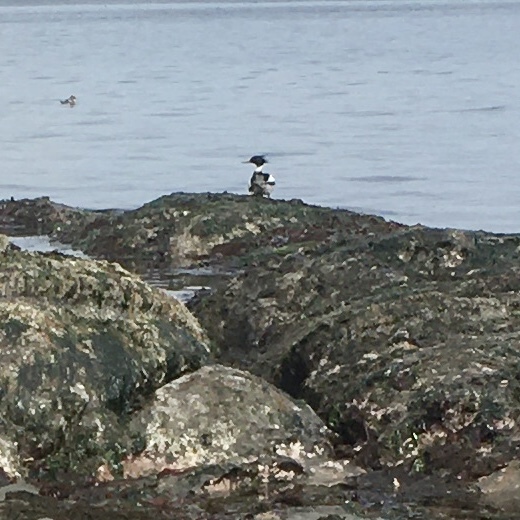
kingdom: Animalia
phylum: Chordata
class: Aves
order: Anseriformes
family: Anatidae
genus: Mergus
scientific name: Mergus serrator
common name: Red-breasted merganser
